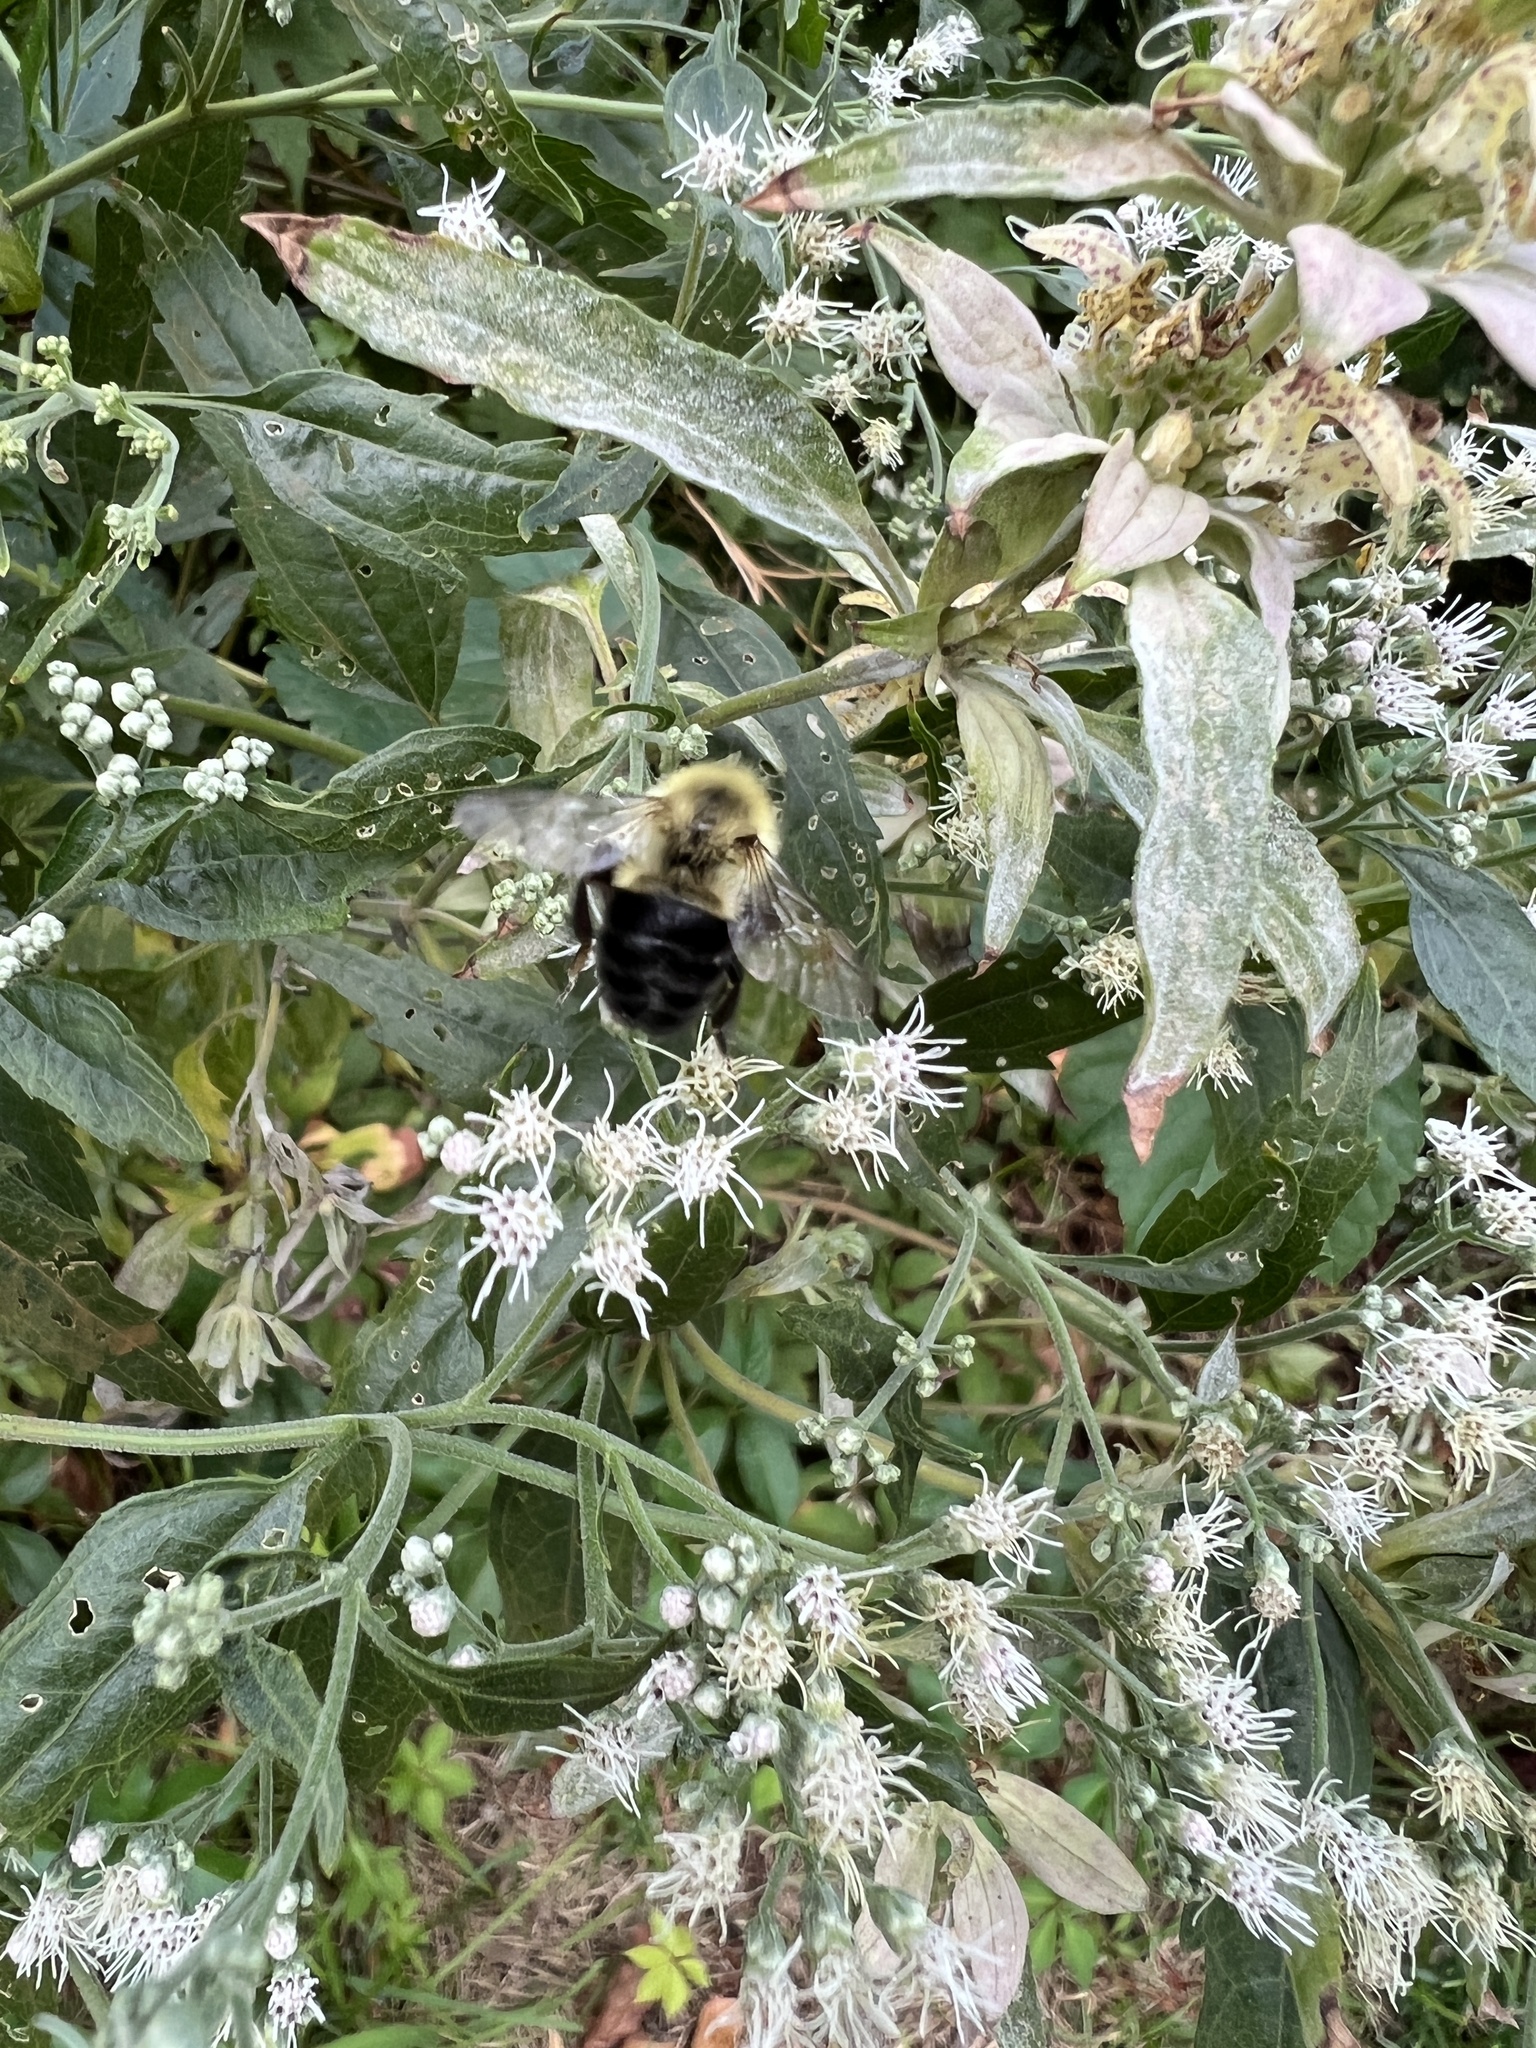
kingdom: Animalia
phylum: Arthropoda
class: Insecta
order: Hymenoptera
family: Apidae
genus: Bombus
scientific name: Bombus impatiens
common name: Common eastern bumble bee
